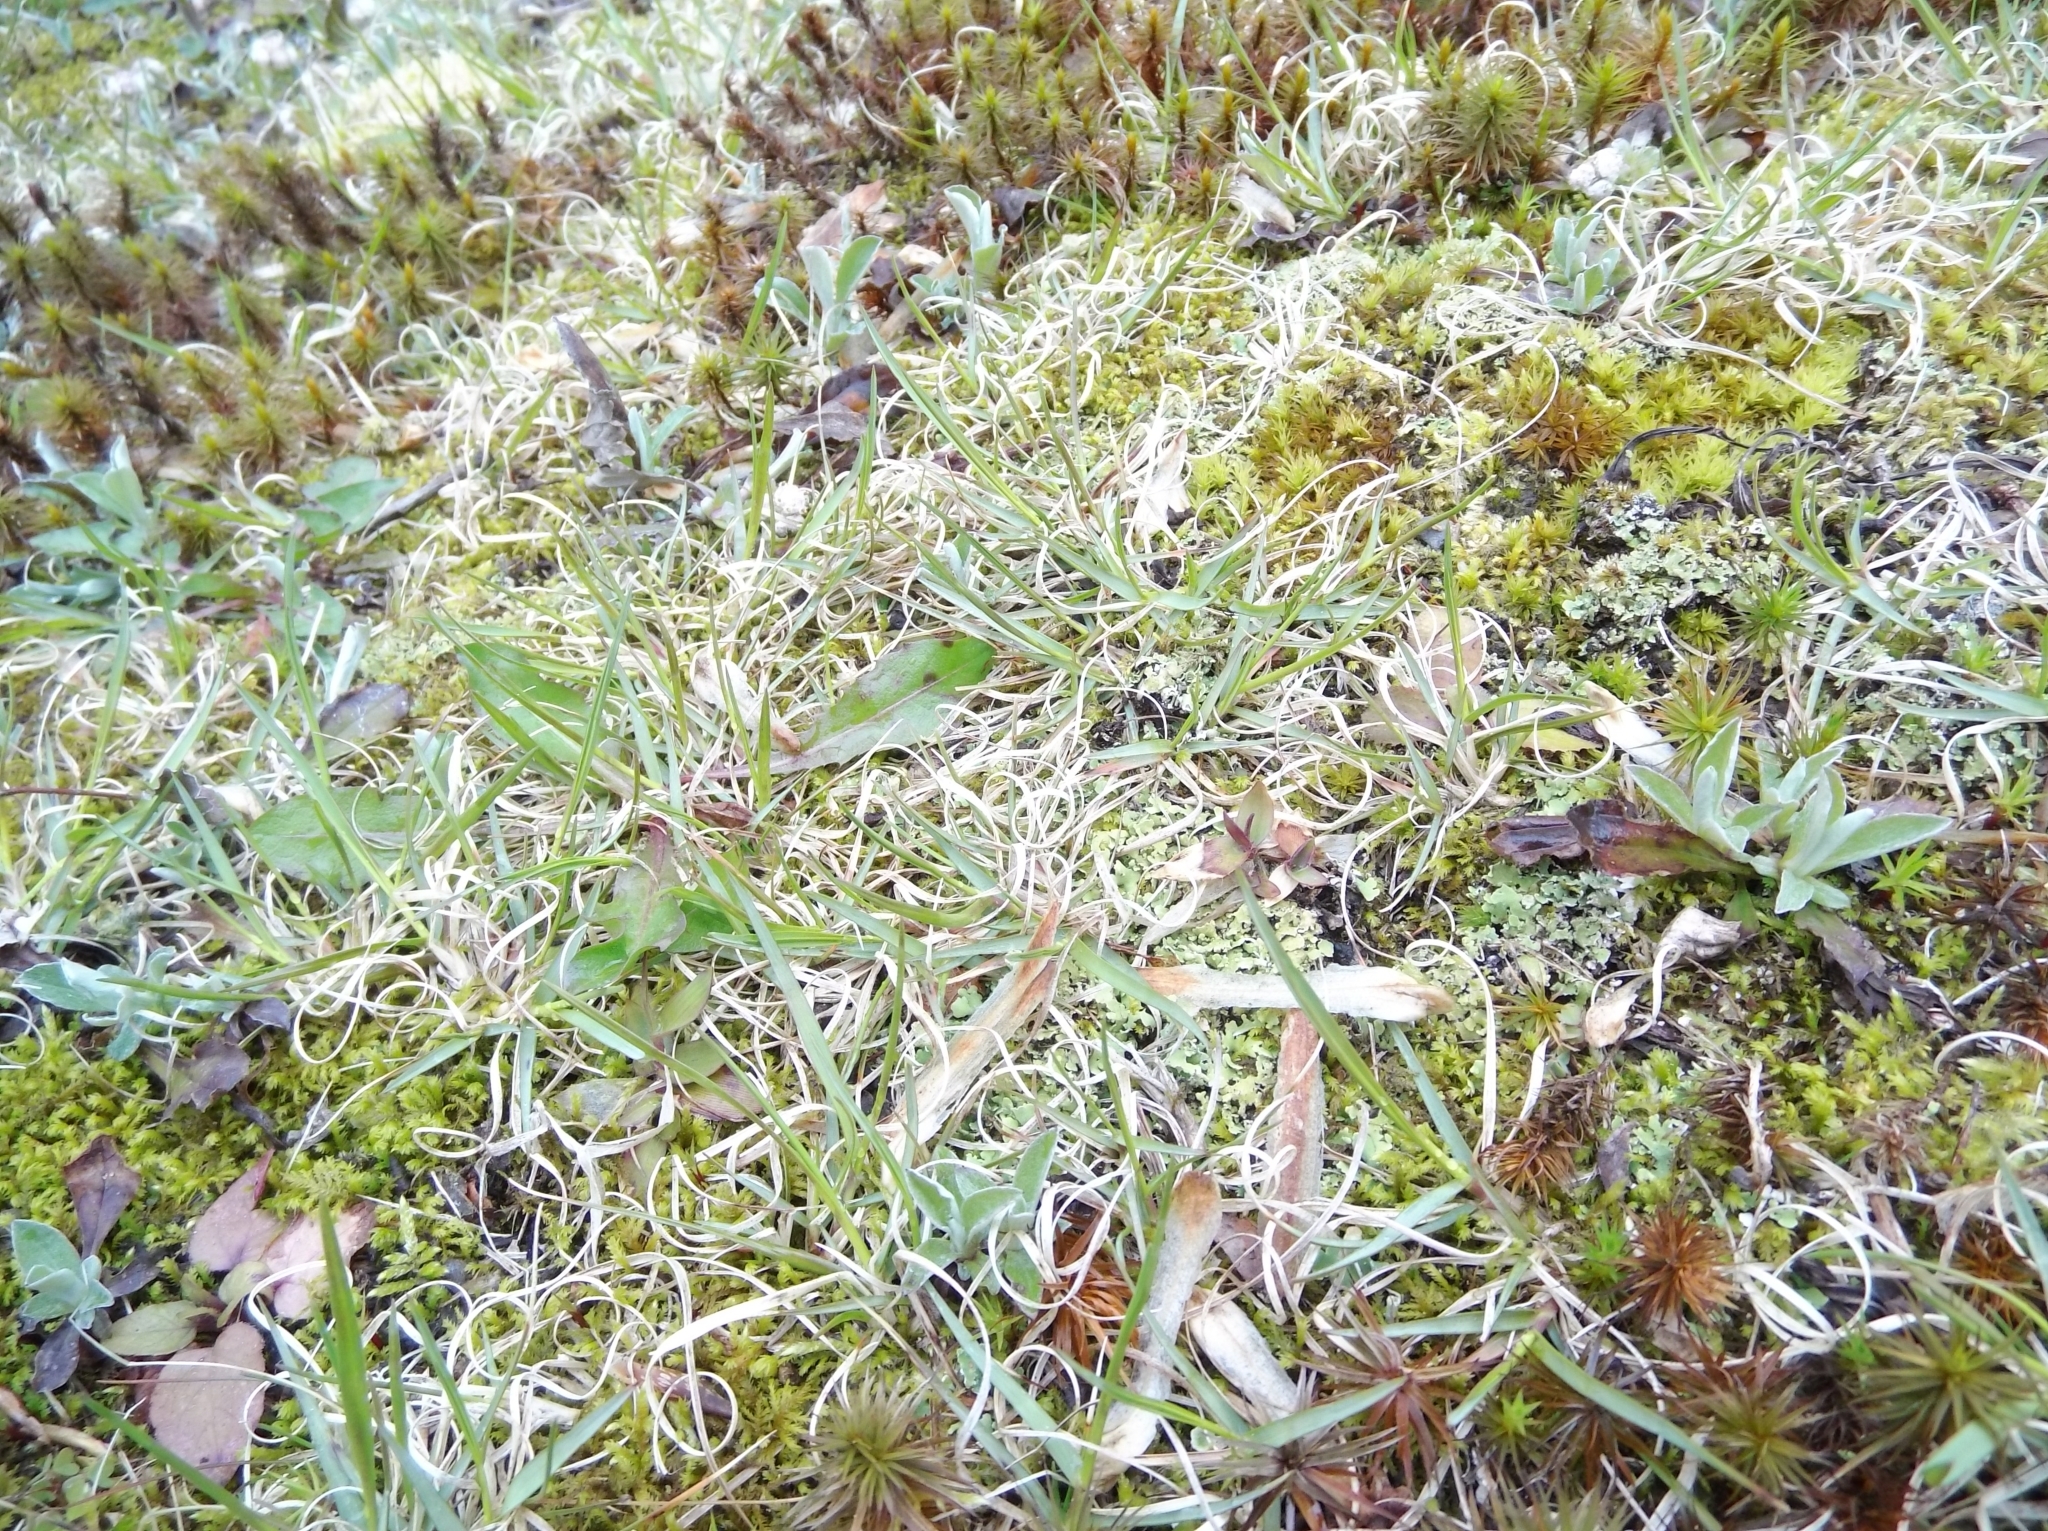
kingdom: Plantae
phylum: Tracheophyta
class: Liliopsida
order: Poales
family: Poaceae
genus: Danthonia
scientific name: Danthonia spicata
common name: Common wild oatgrass
